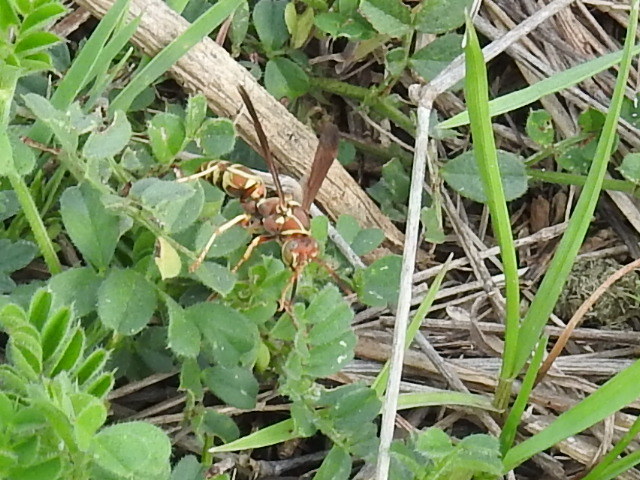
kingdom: Animalia
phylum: Arthropoda
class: Insecta
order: Hymenoptera
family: Eumenidae
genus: Polistes
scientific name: Polistes dorsalis
